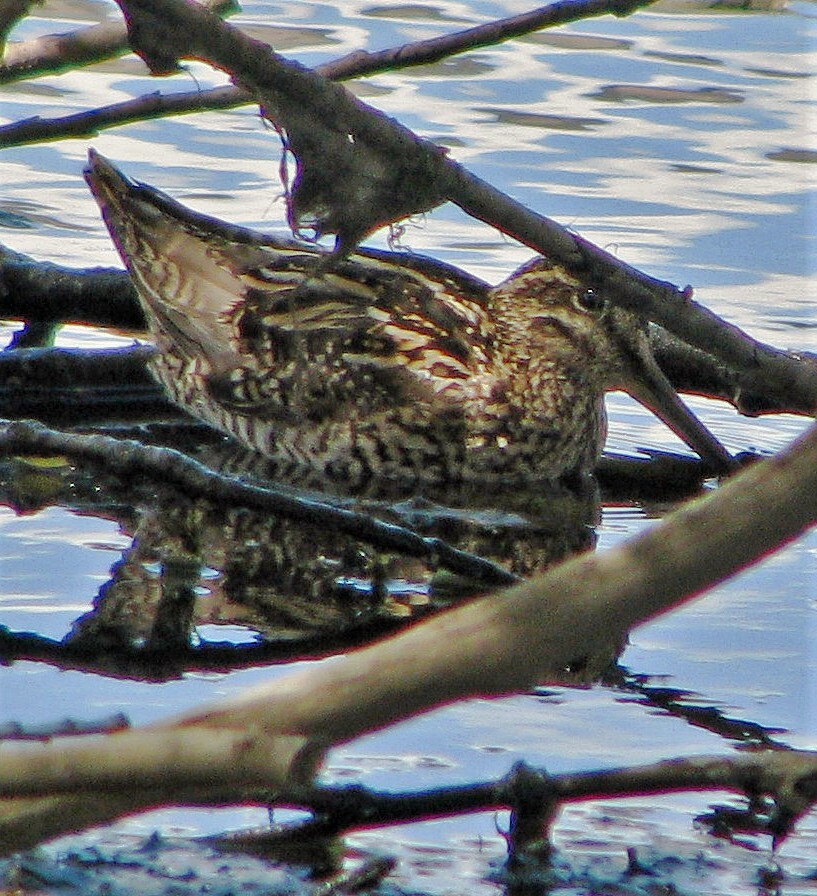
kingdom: Animalia
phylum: Chordata
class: Aves
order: Charadriiformes
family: Scolopacidae
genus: Gallinago
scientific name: Gallinago magellanica
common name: Magellanic snipe
